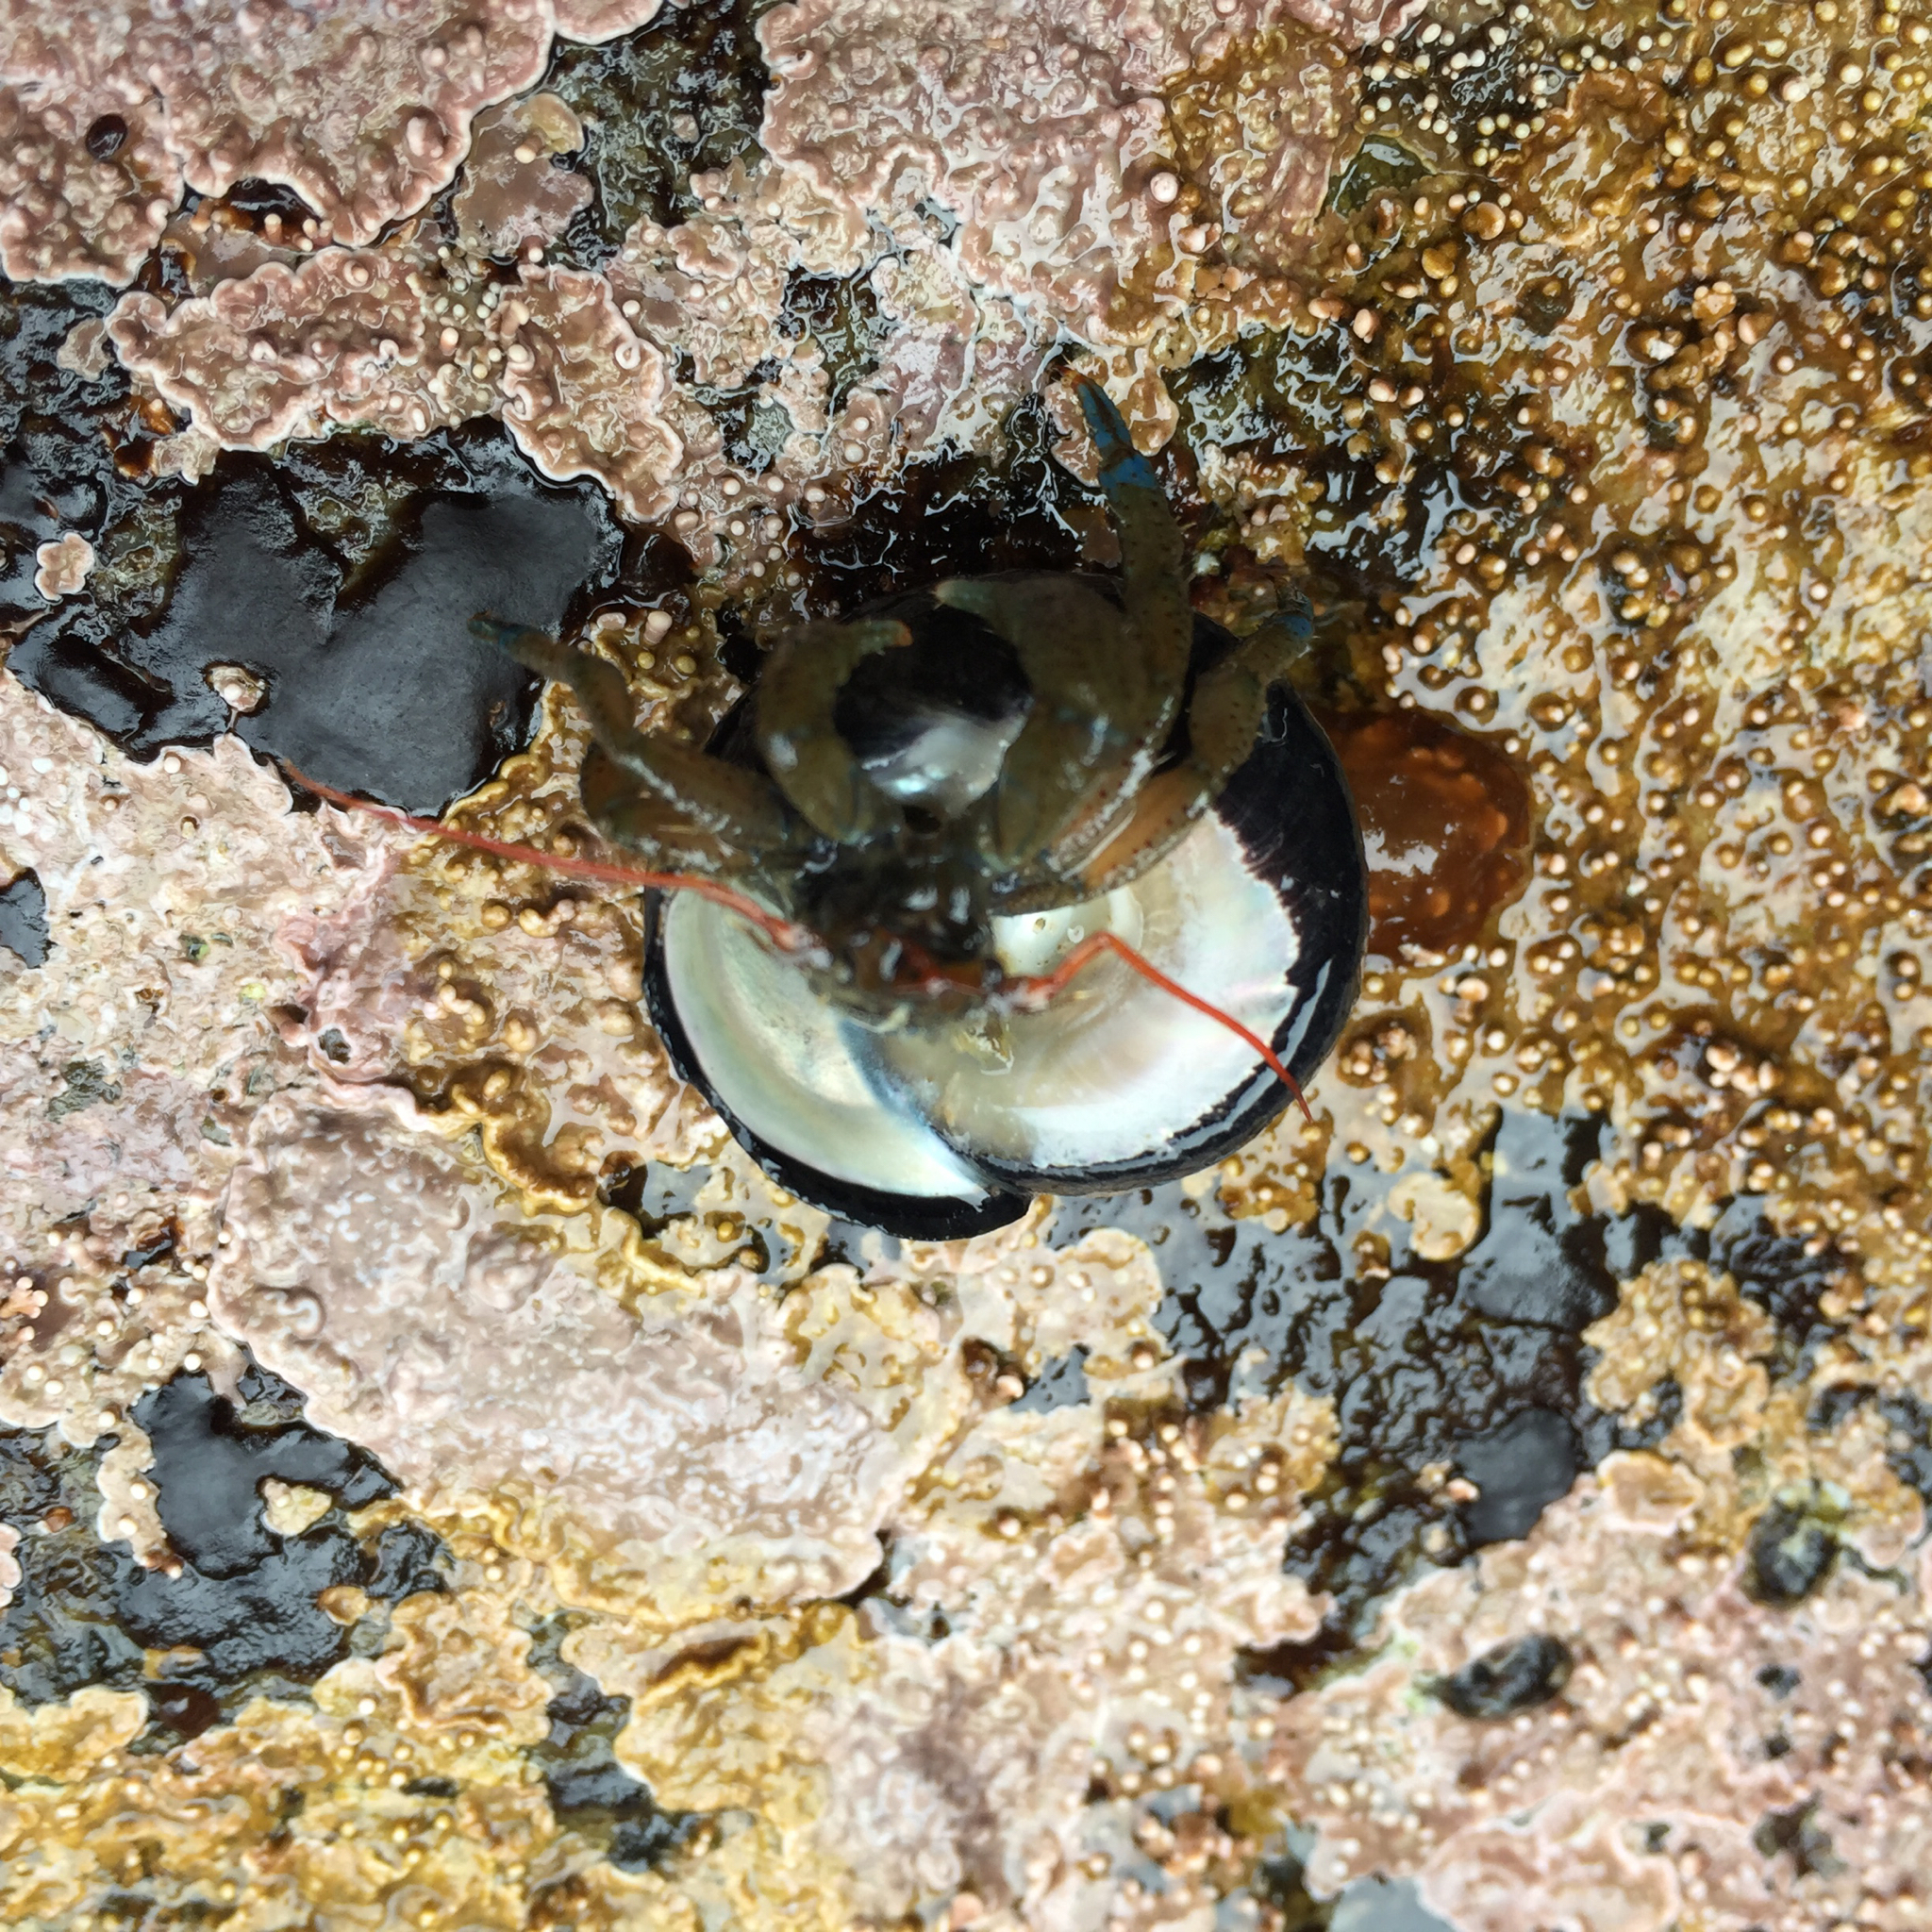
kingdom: Animalia
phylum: Arthropoda
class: Malacostraca
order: Decapoda
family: Paguridae
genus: Pagurus
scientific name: Pagurus samuelis
